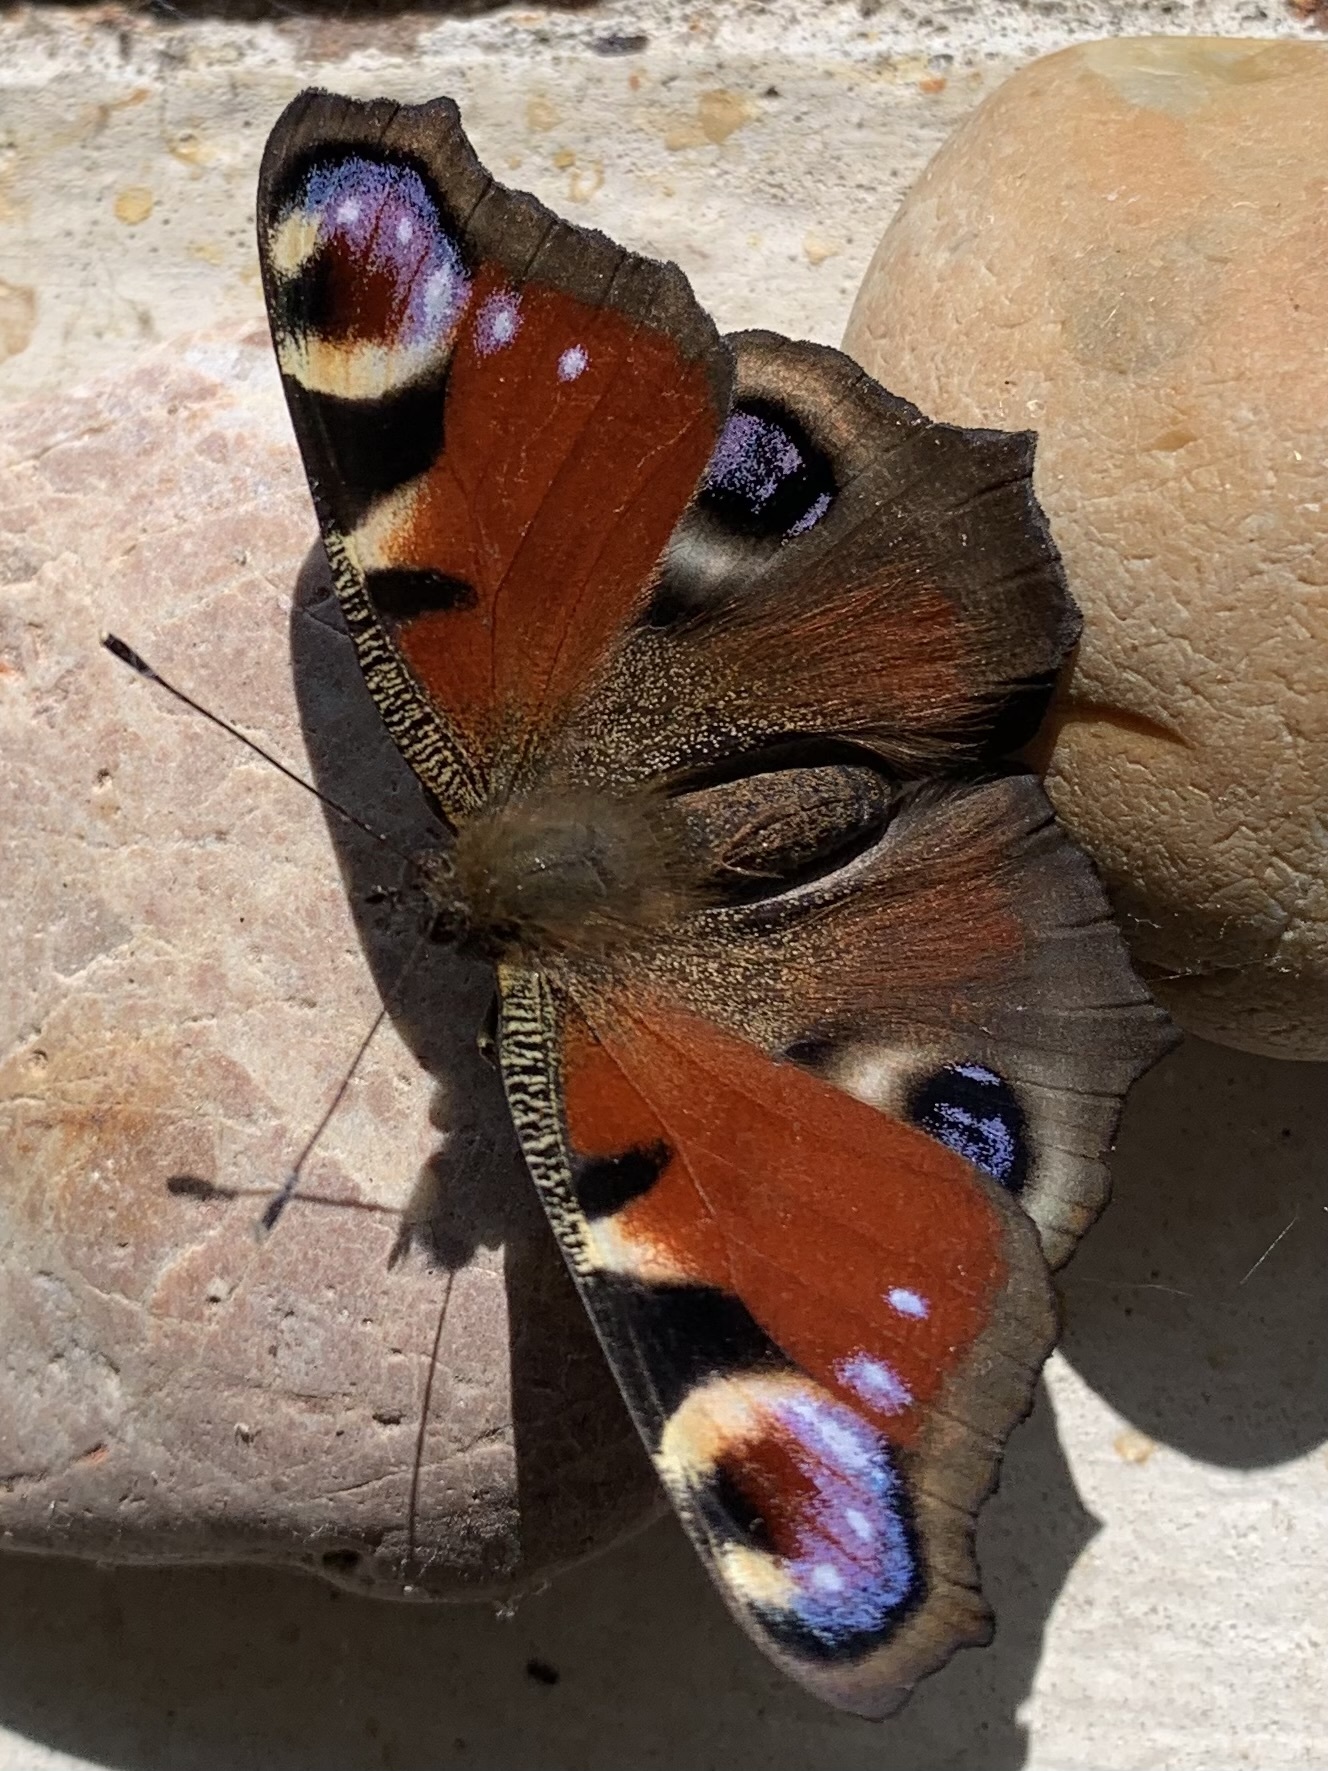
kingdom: Animalia
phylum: Arthropoda
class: Insecta
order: Lepidoptera
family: Nymphalidae
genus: Aglais
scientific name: Aglais io
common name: Peacock
